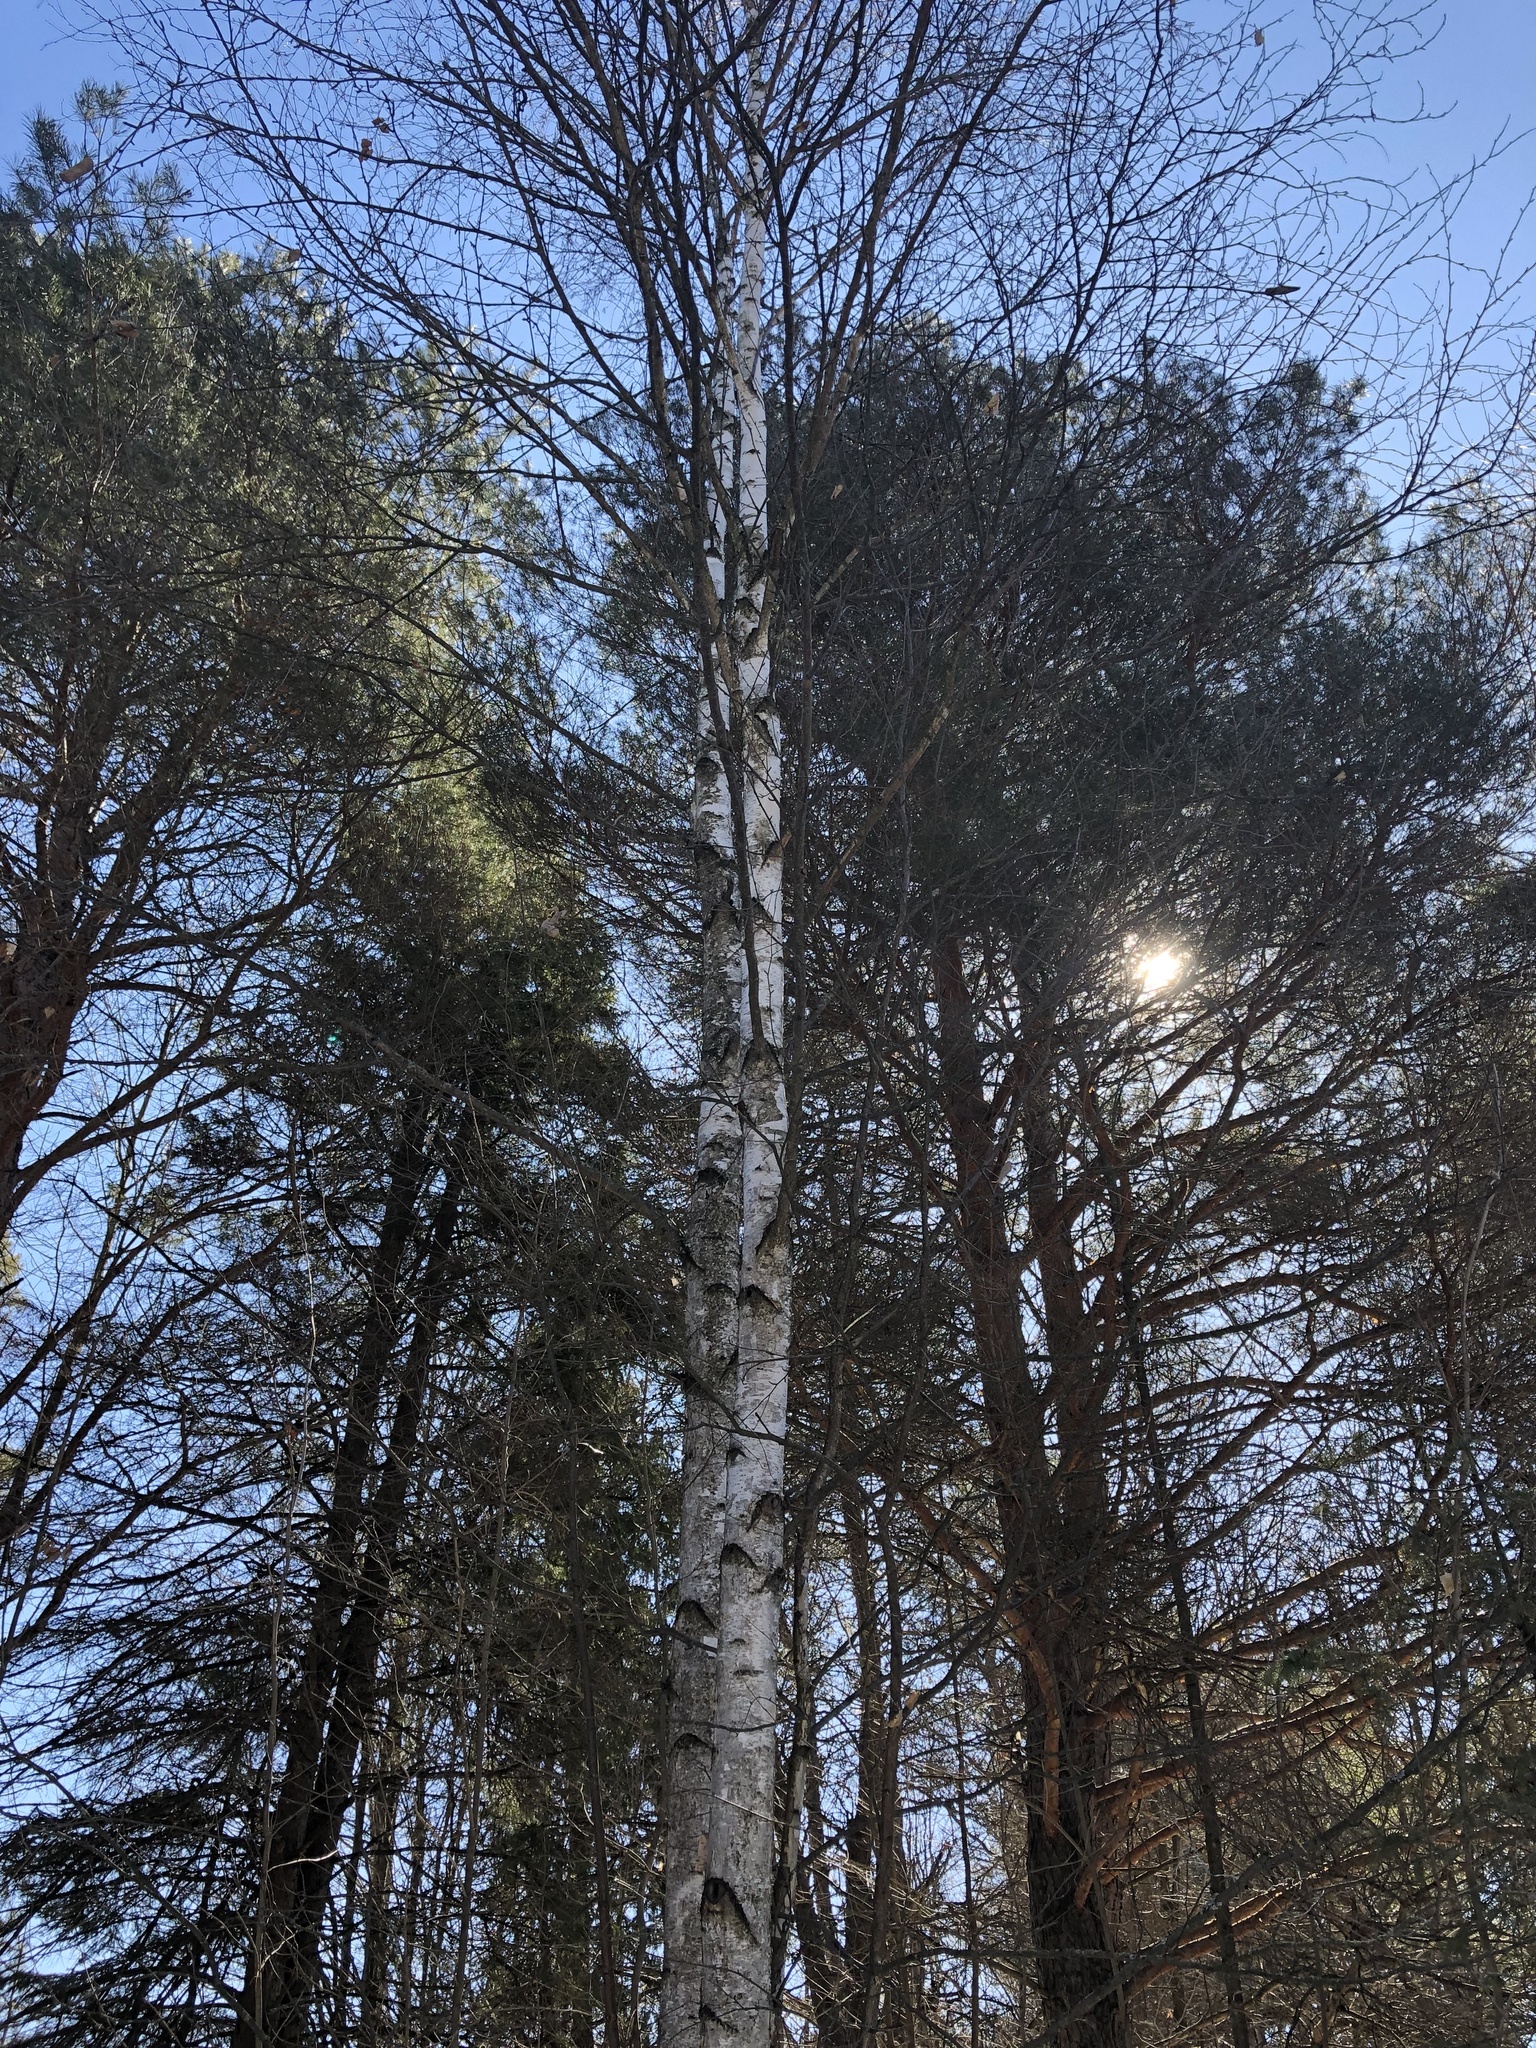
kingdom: Plantae
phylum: Tracheophyta
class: Magnoliopsida
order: Fagales
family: Betulaceae
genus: Betula
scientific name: Betula papyrifera
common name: Paper birch
